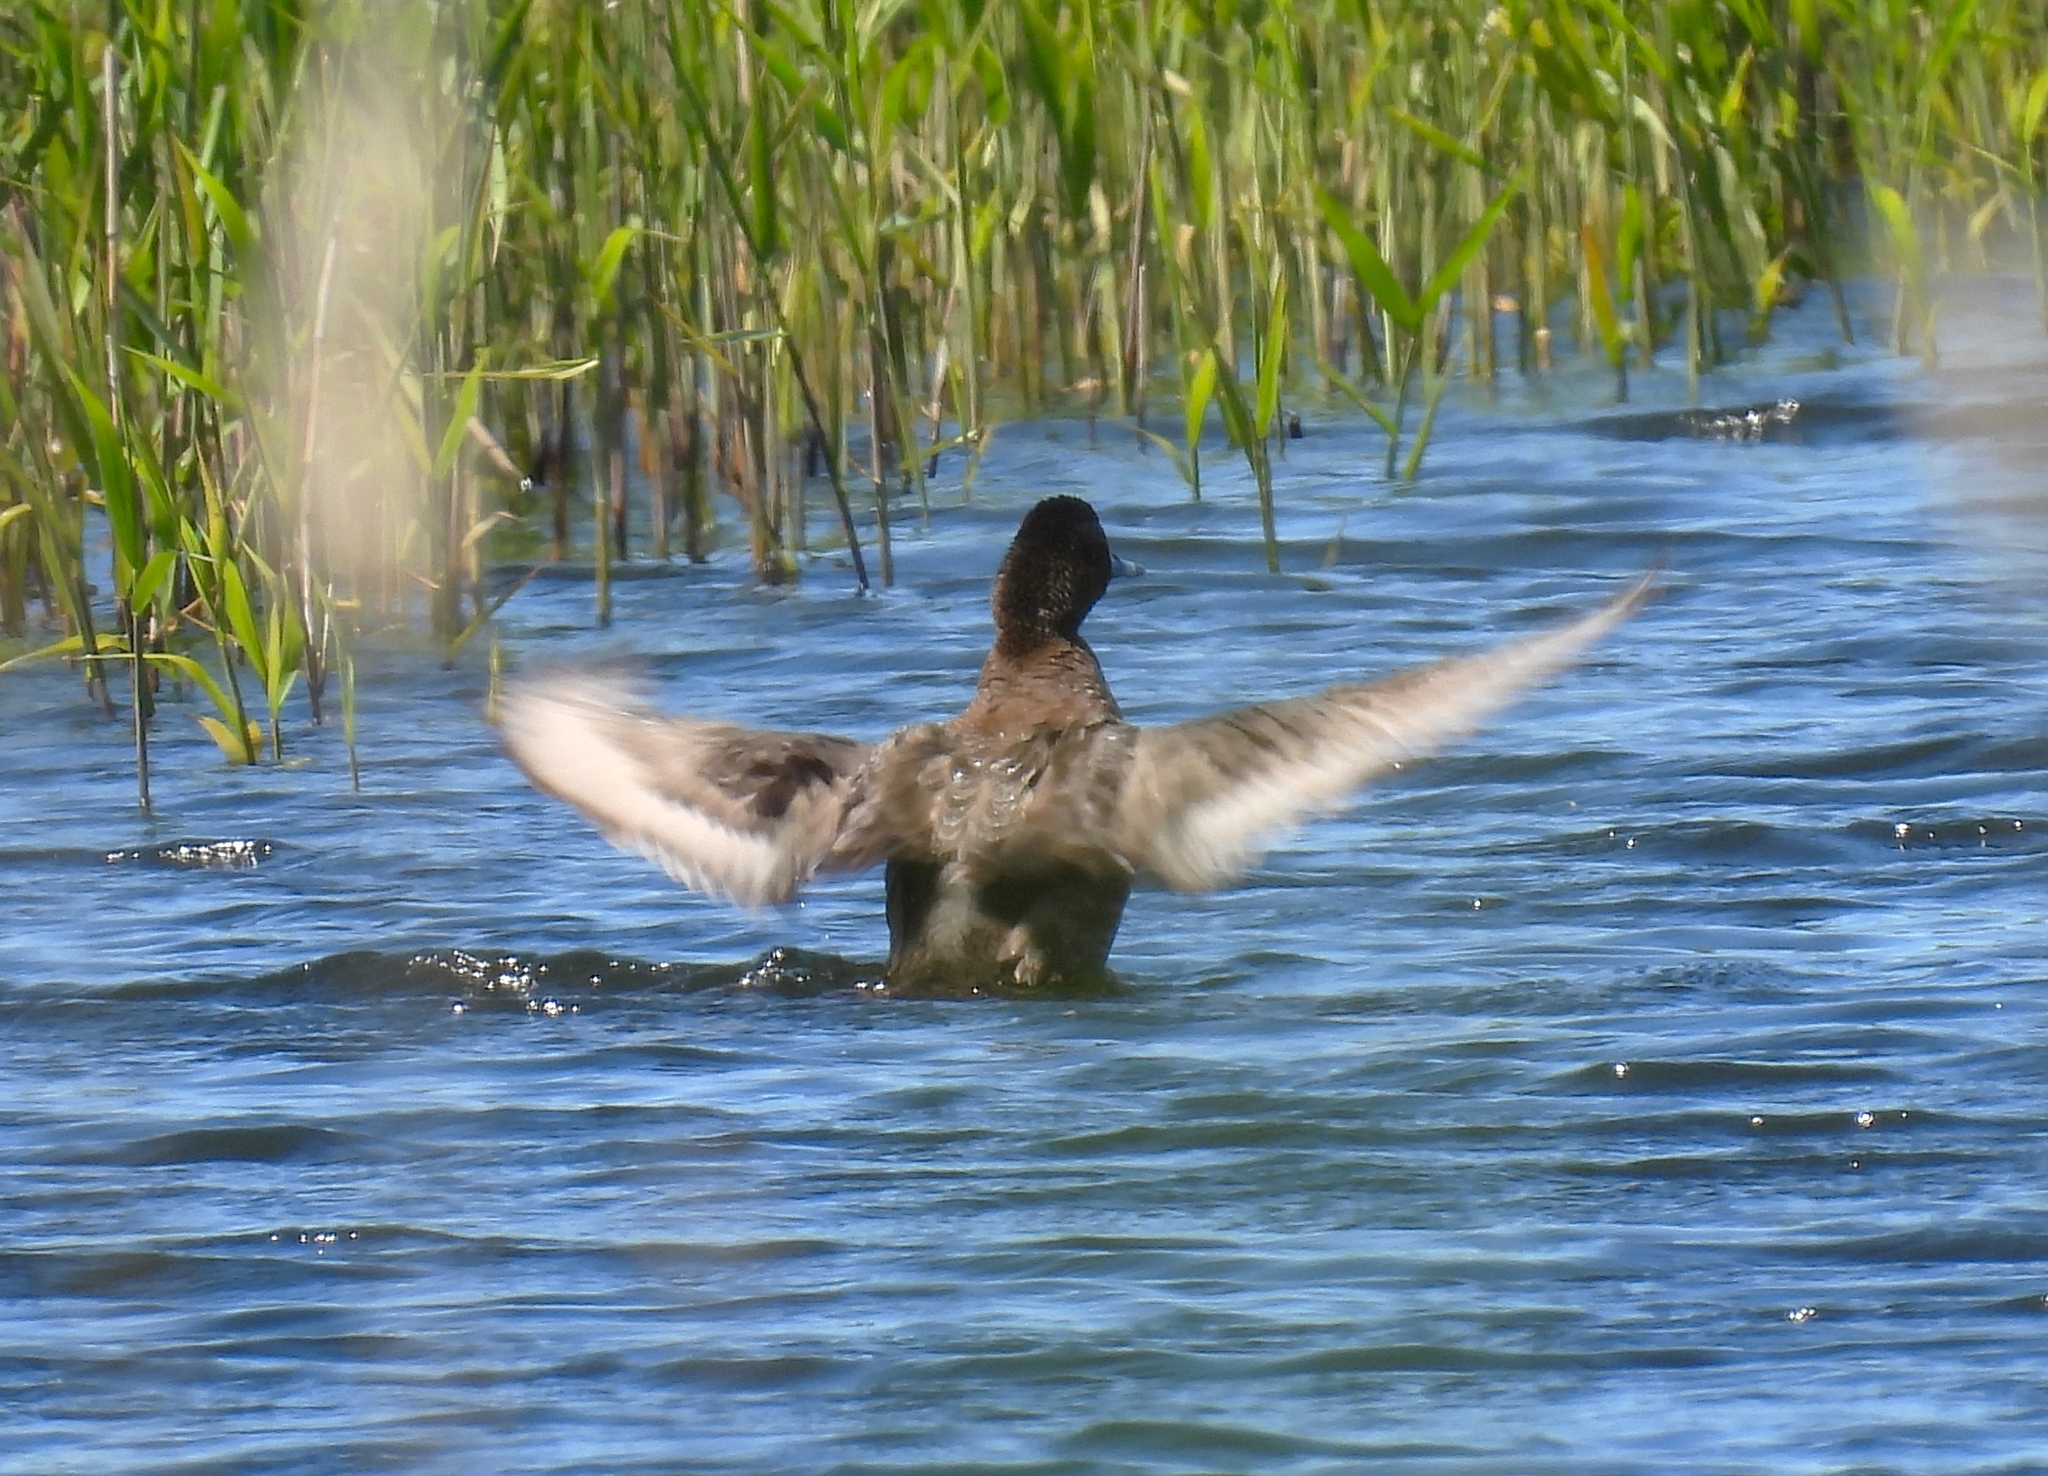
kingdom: Animalia
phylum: Chordata
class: Aves
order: Anseriformes
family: Anatidae
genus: Aythya
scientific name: Aythya fuligula
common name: Tufted duck
